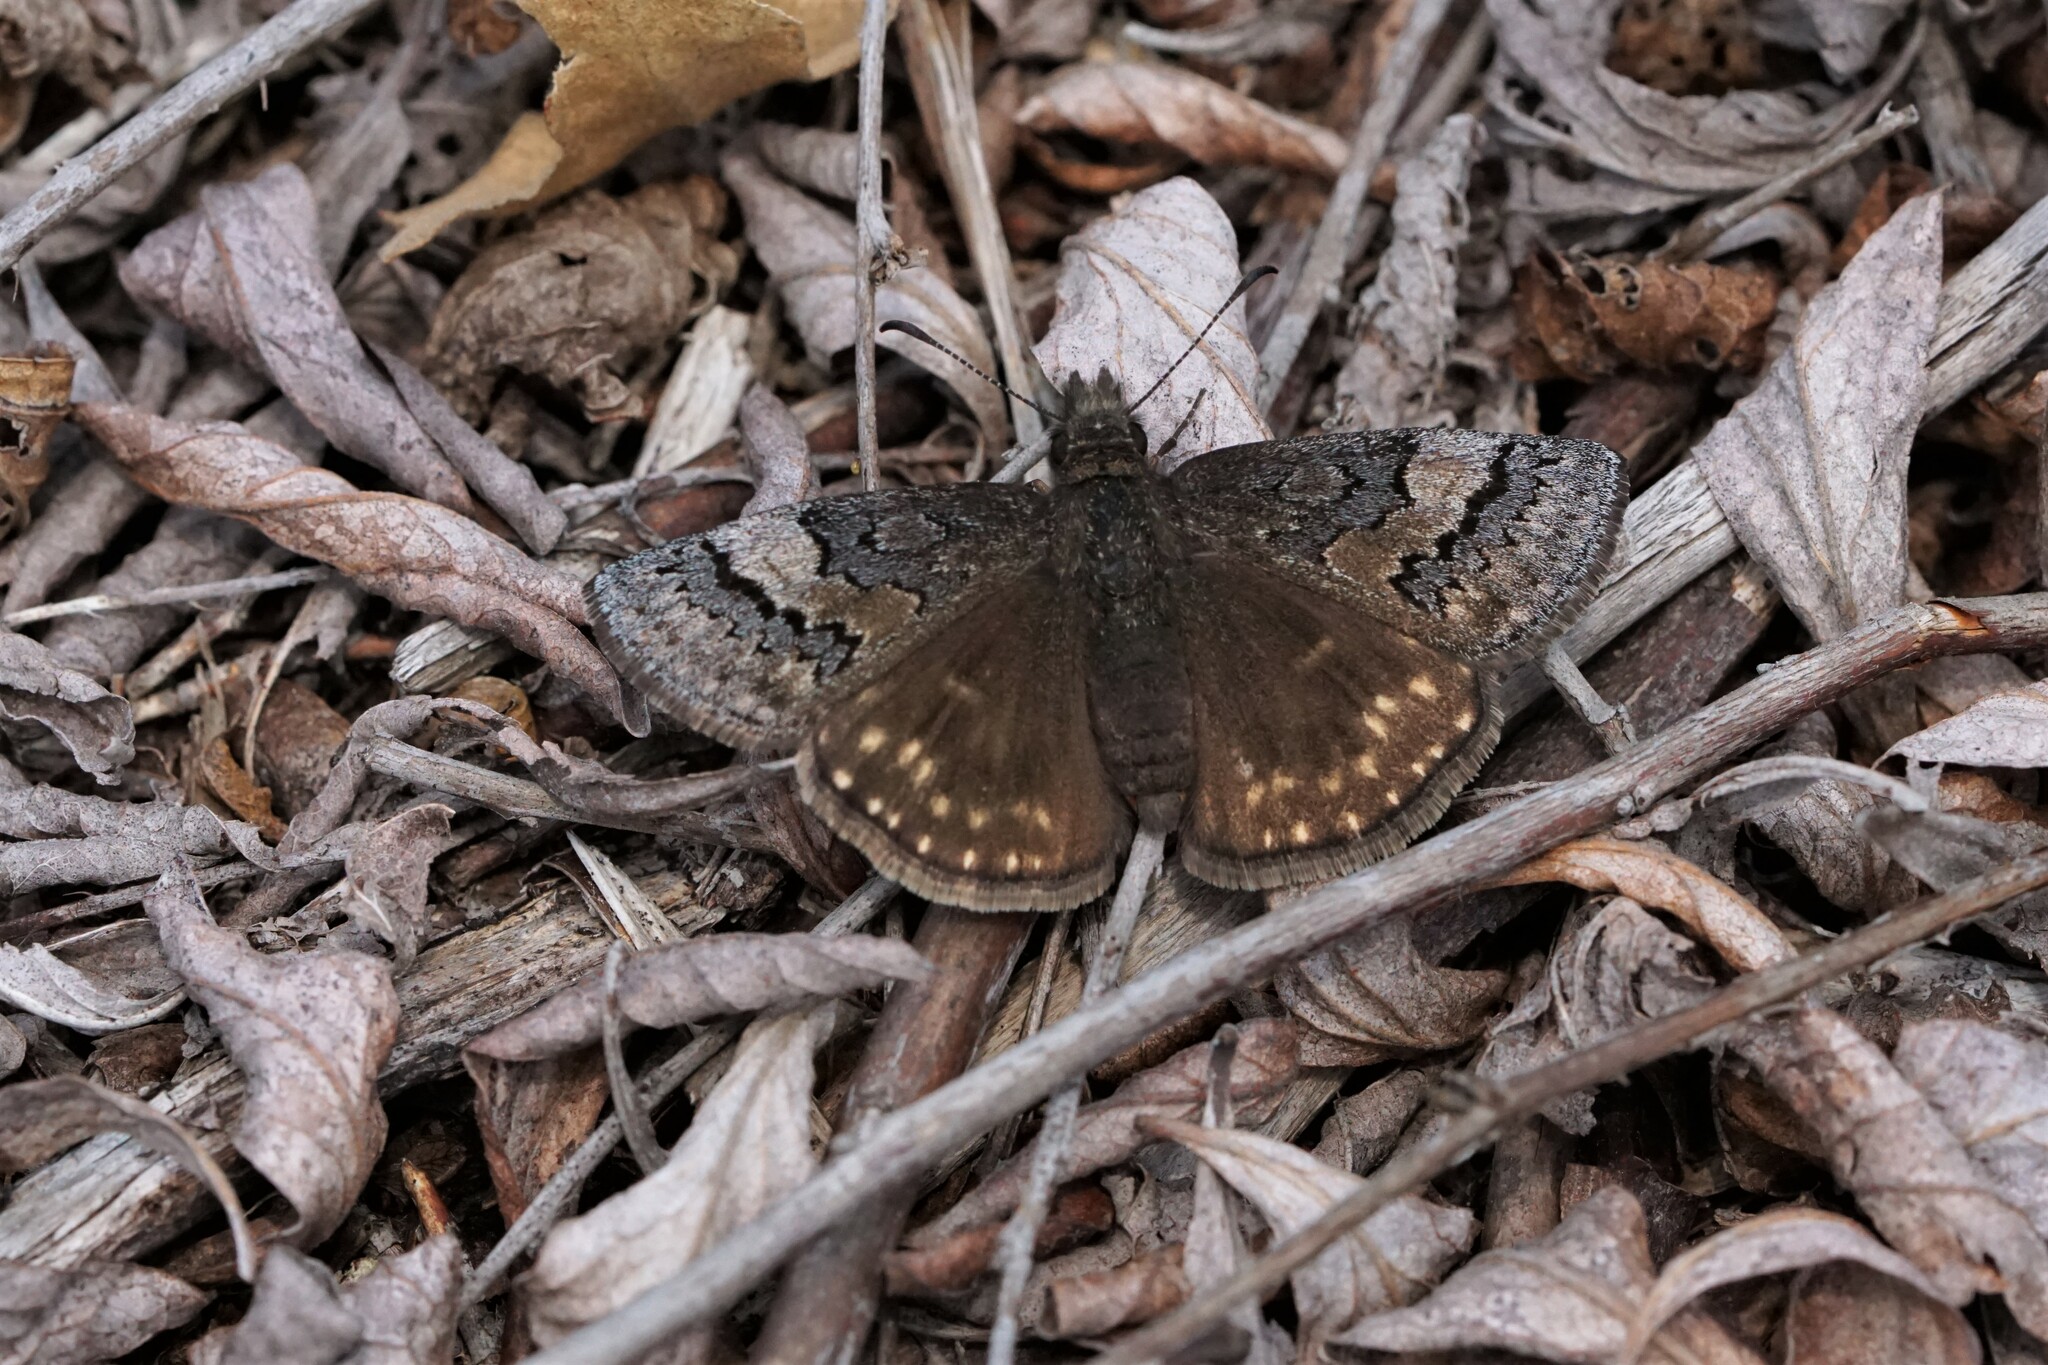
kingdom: Animalia
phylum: Arthropoda
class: Insecta
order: Lepidoptera
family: Hesperiidae
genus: Erynnis
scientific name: Erynnis brizo
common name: Sleepy duskywing
